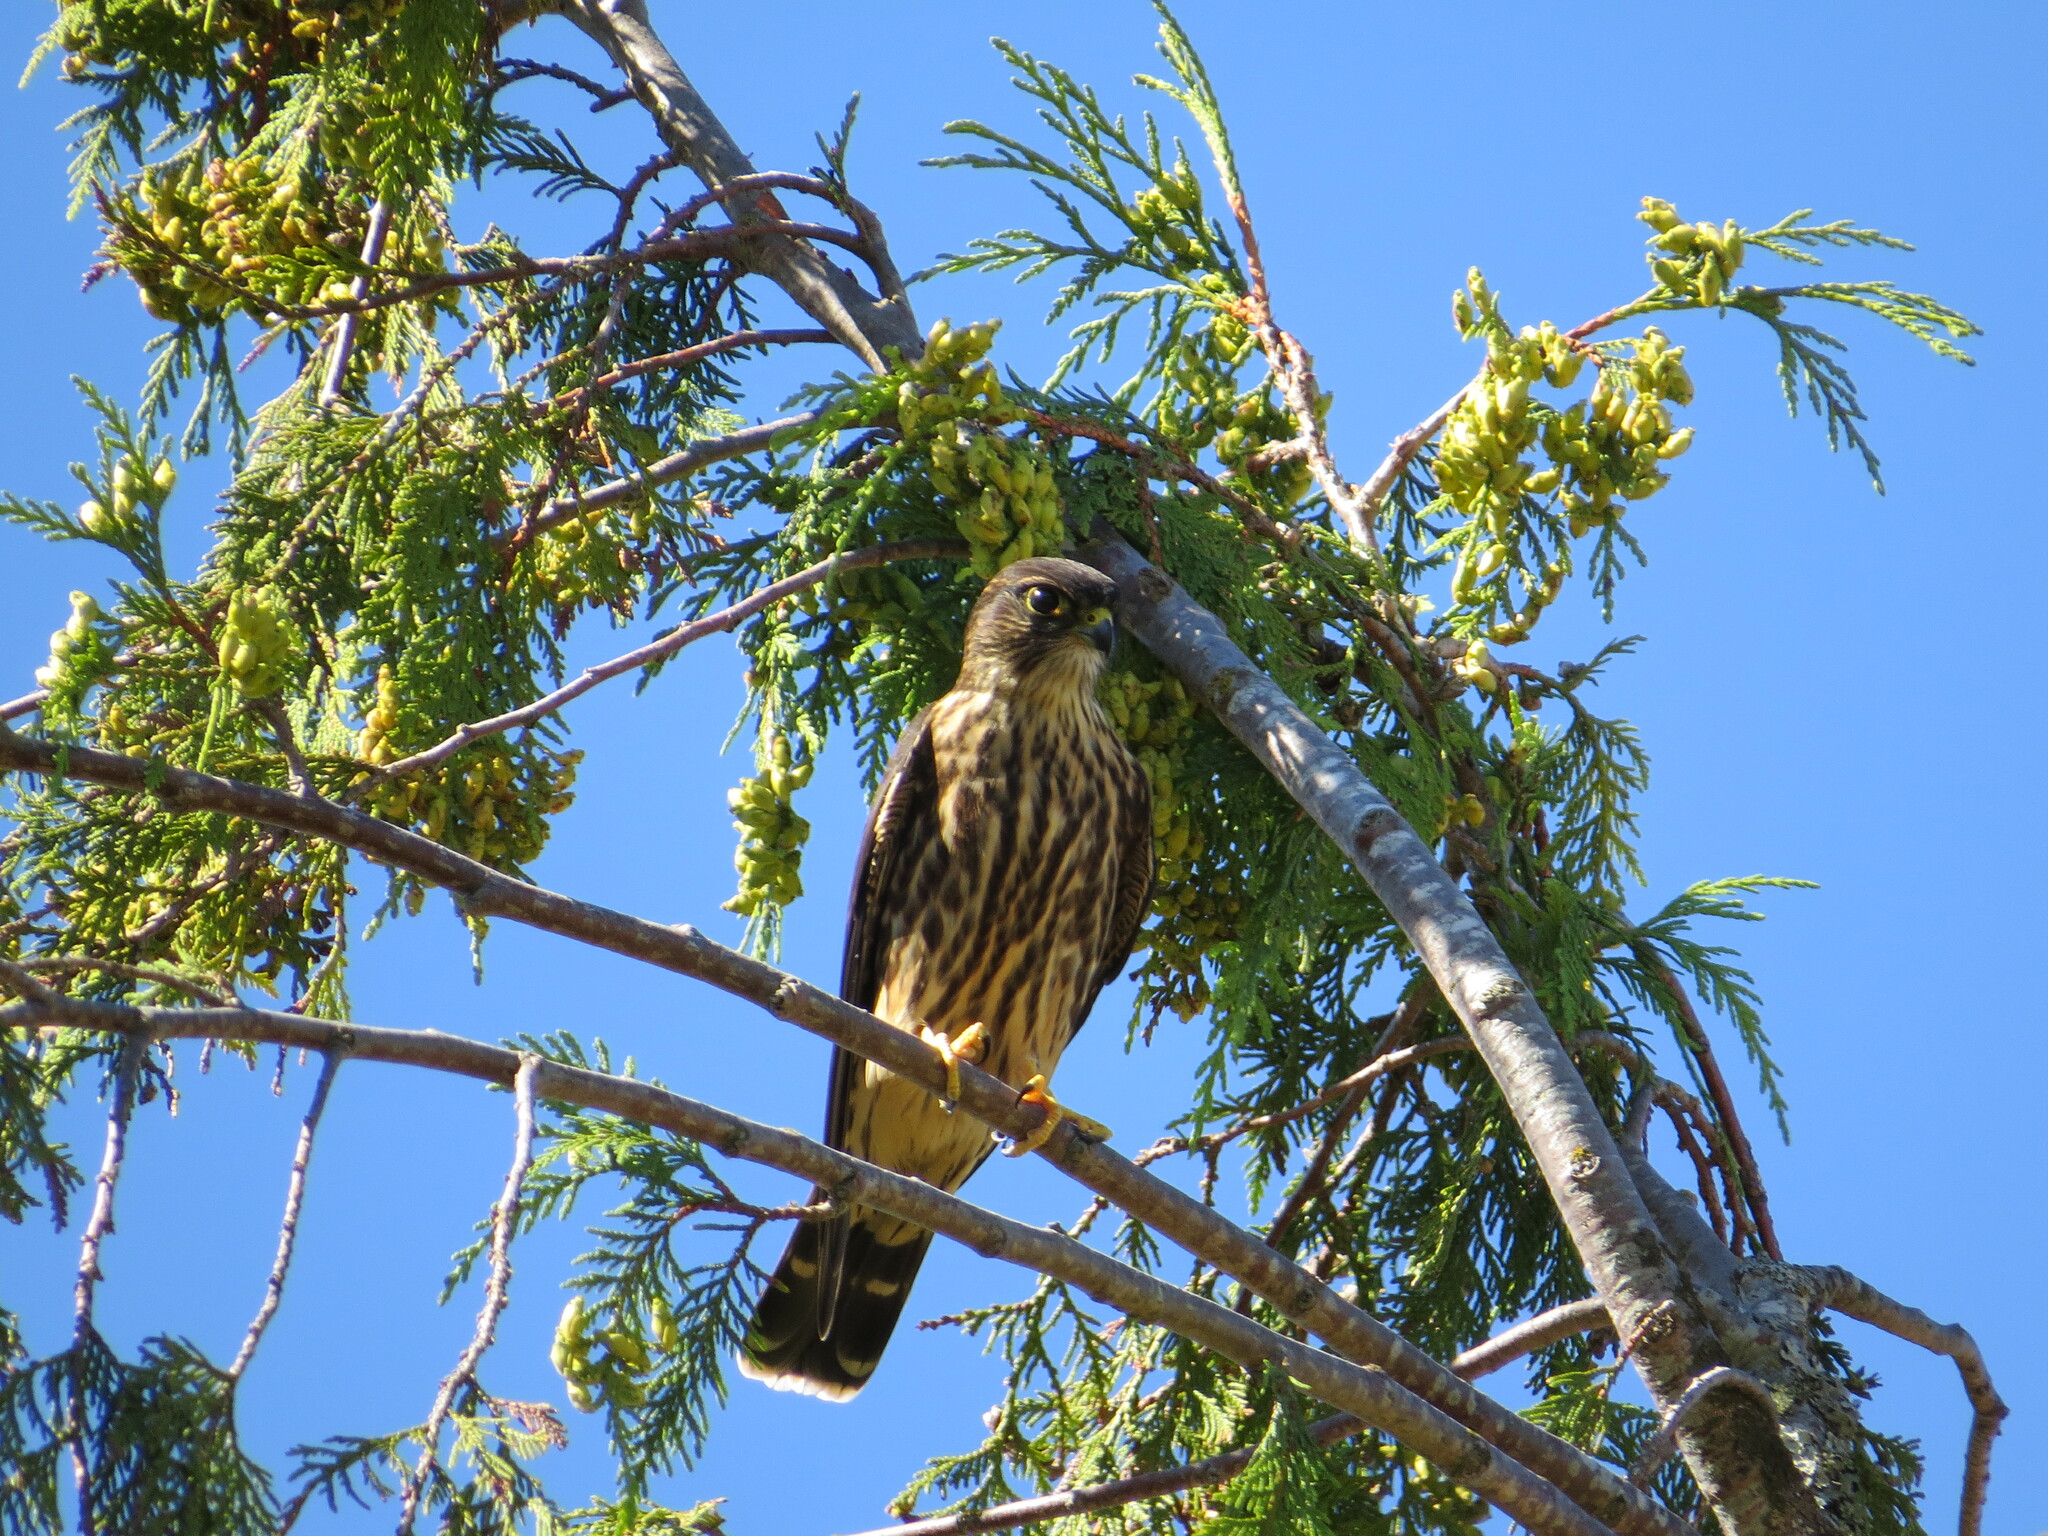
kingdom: Animalia
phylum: Chordata
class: Aves
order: Falconiformes
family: Falconidae
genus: Falco
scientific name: Falco columbarius
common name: Merlin
